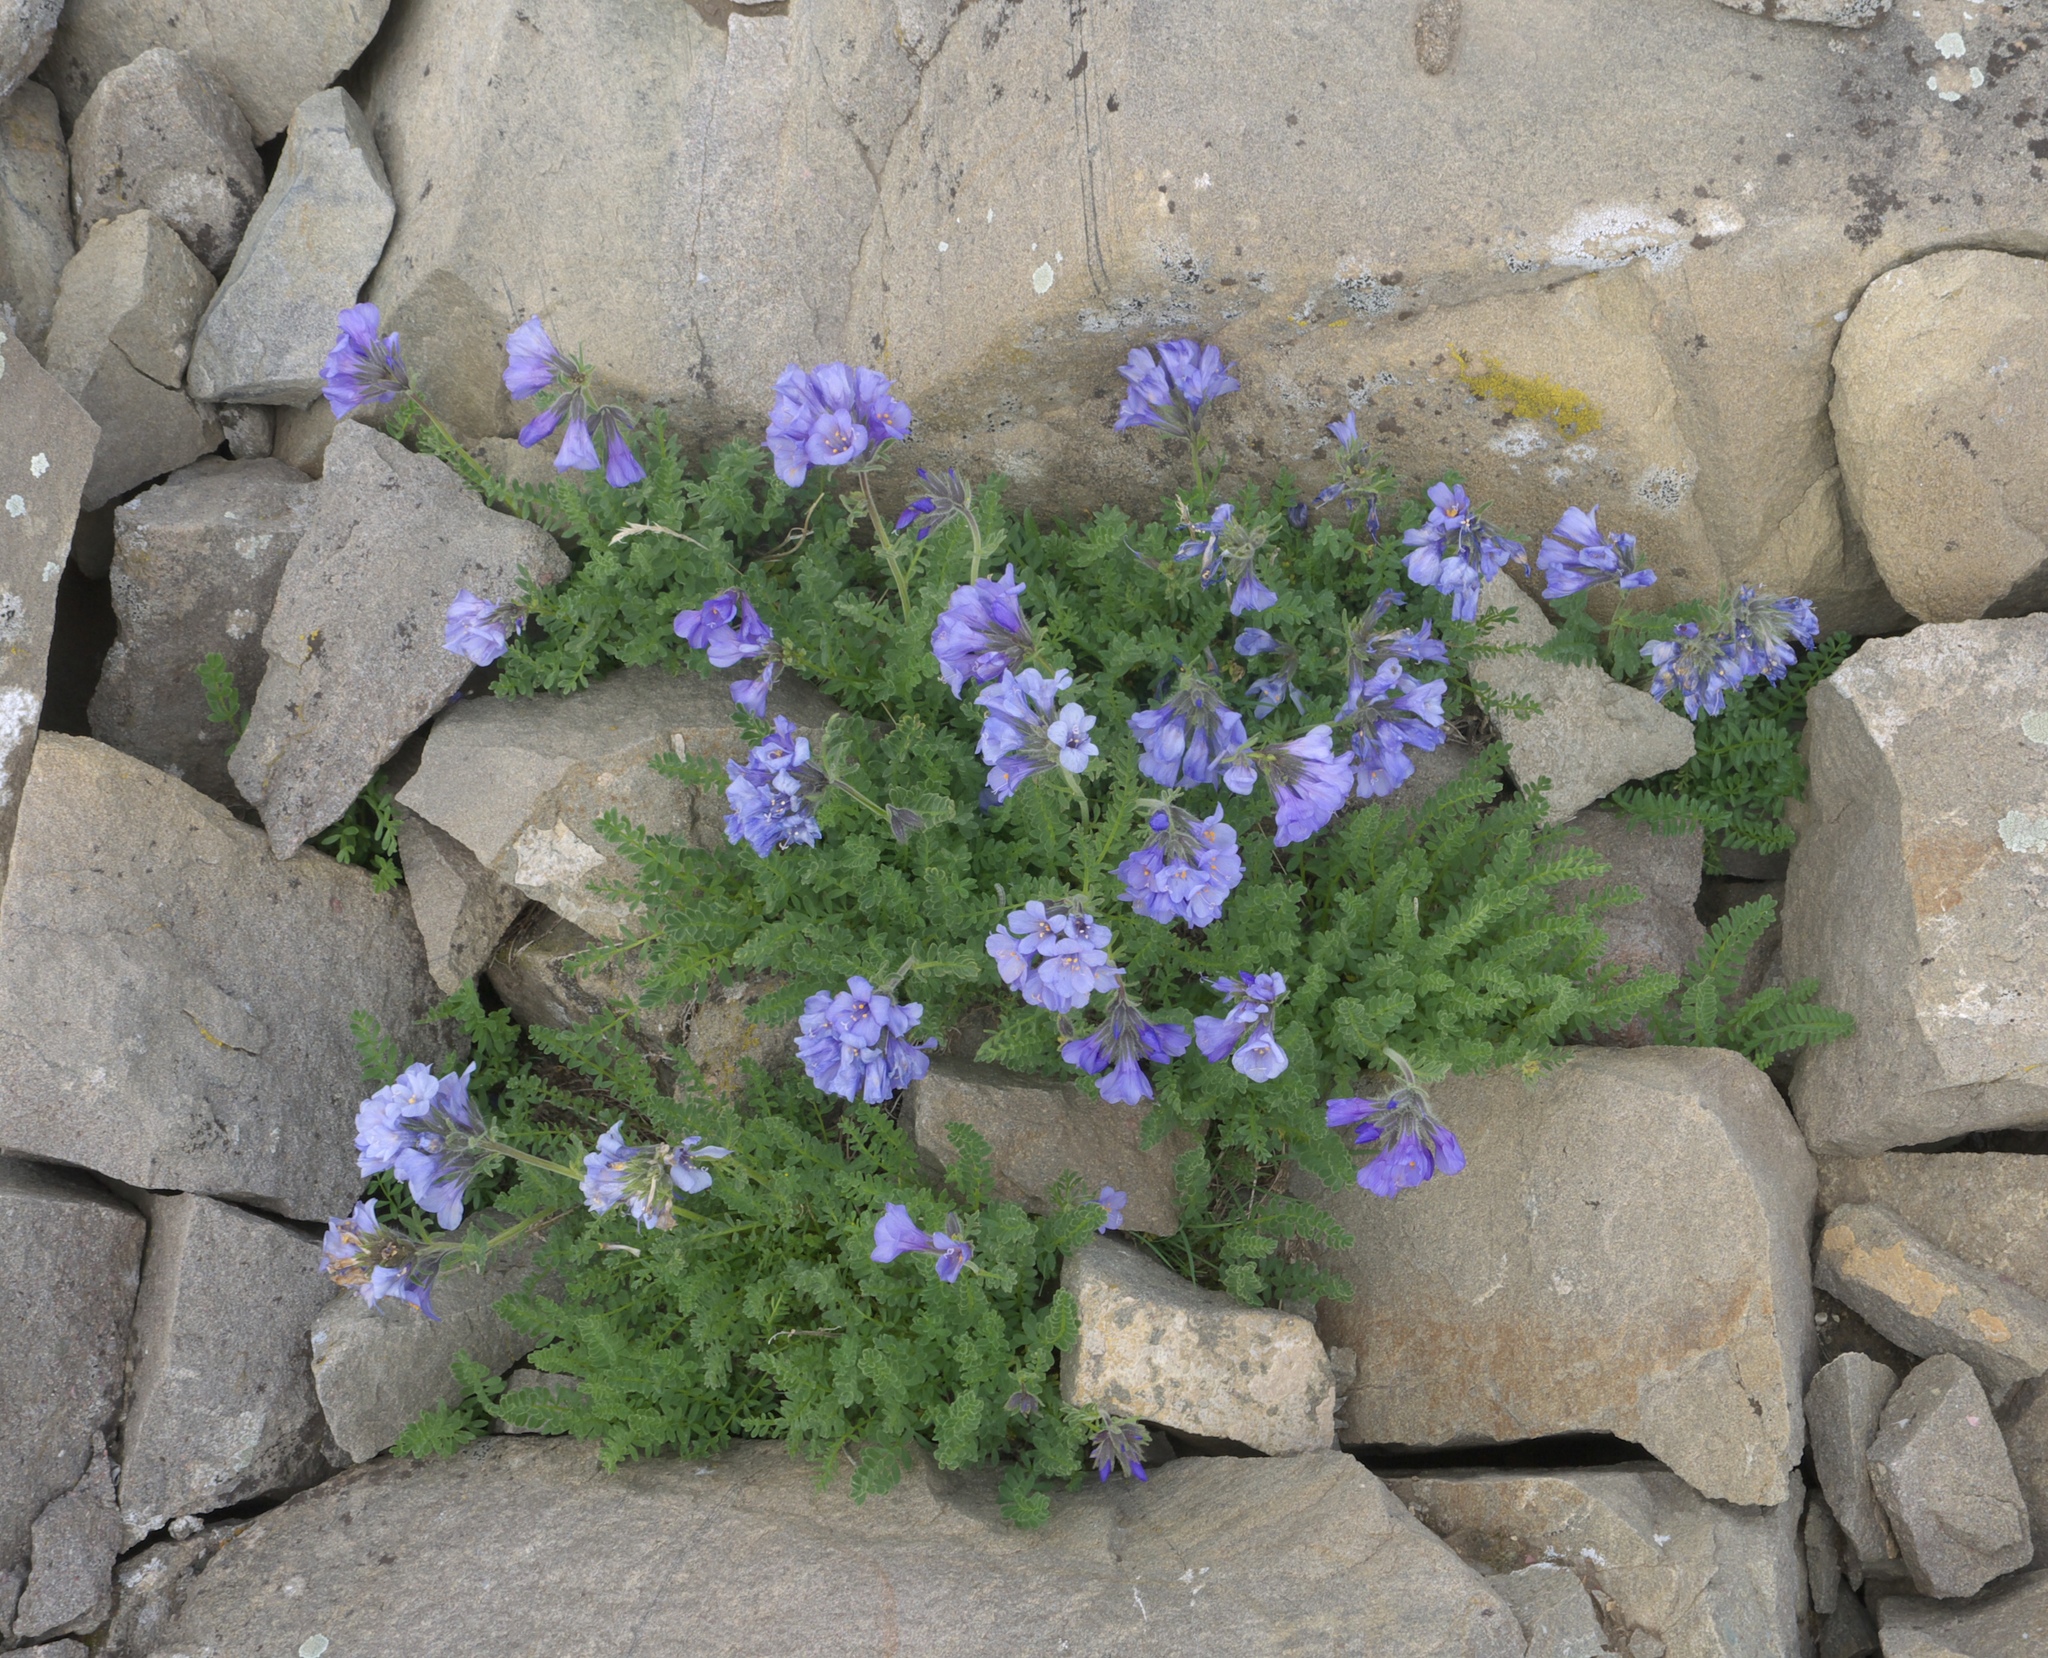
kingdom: Plantae
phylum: Tracheophyta
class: Magnoliopsida
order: Ericales
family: Polemoniaceae
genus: Polemonium
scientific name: Polemonium viscosum
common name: Skunk jacob's-ladder
